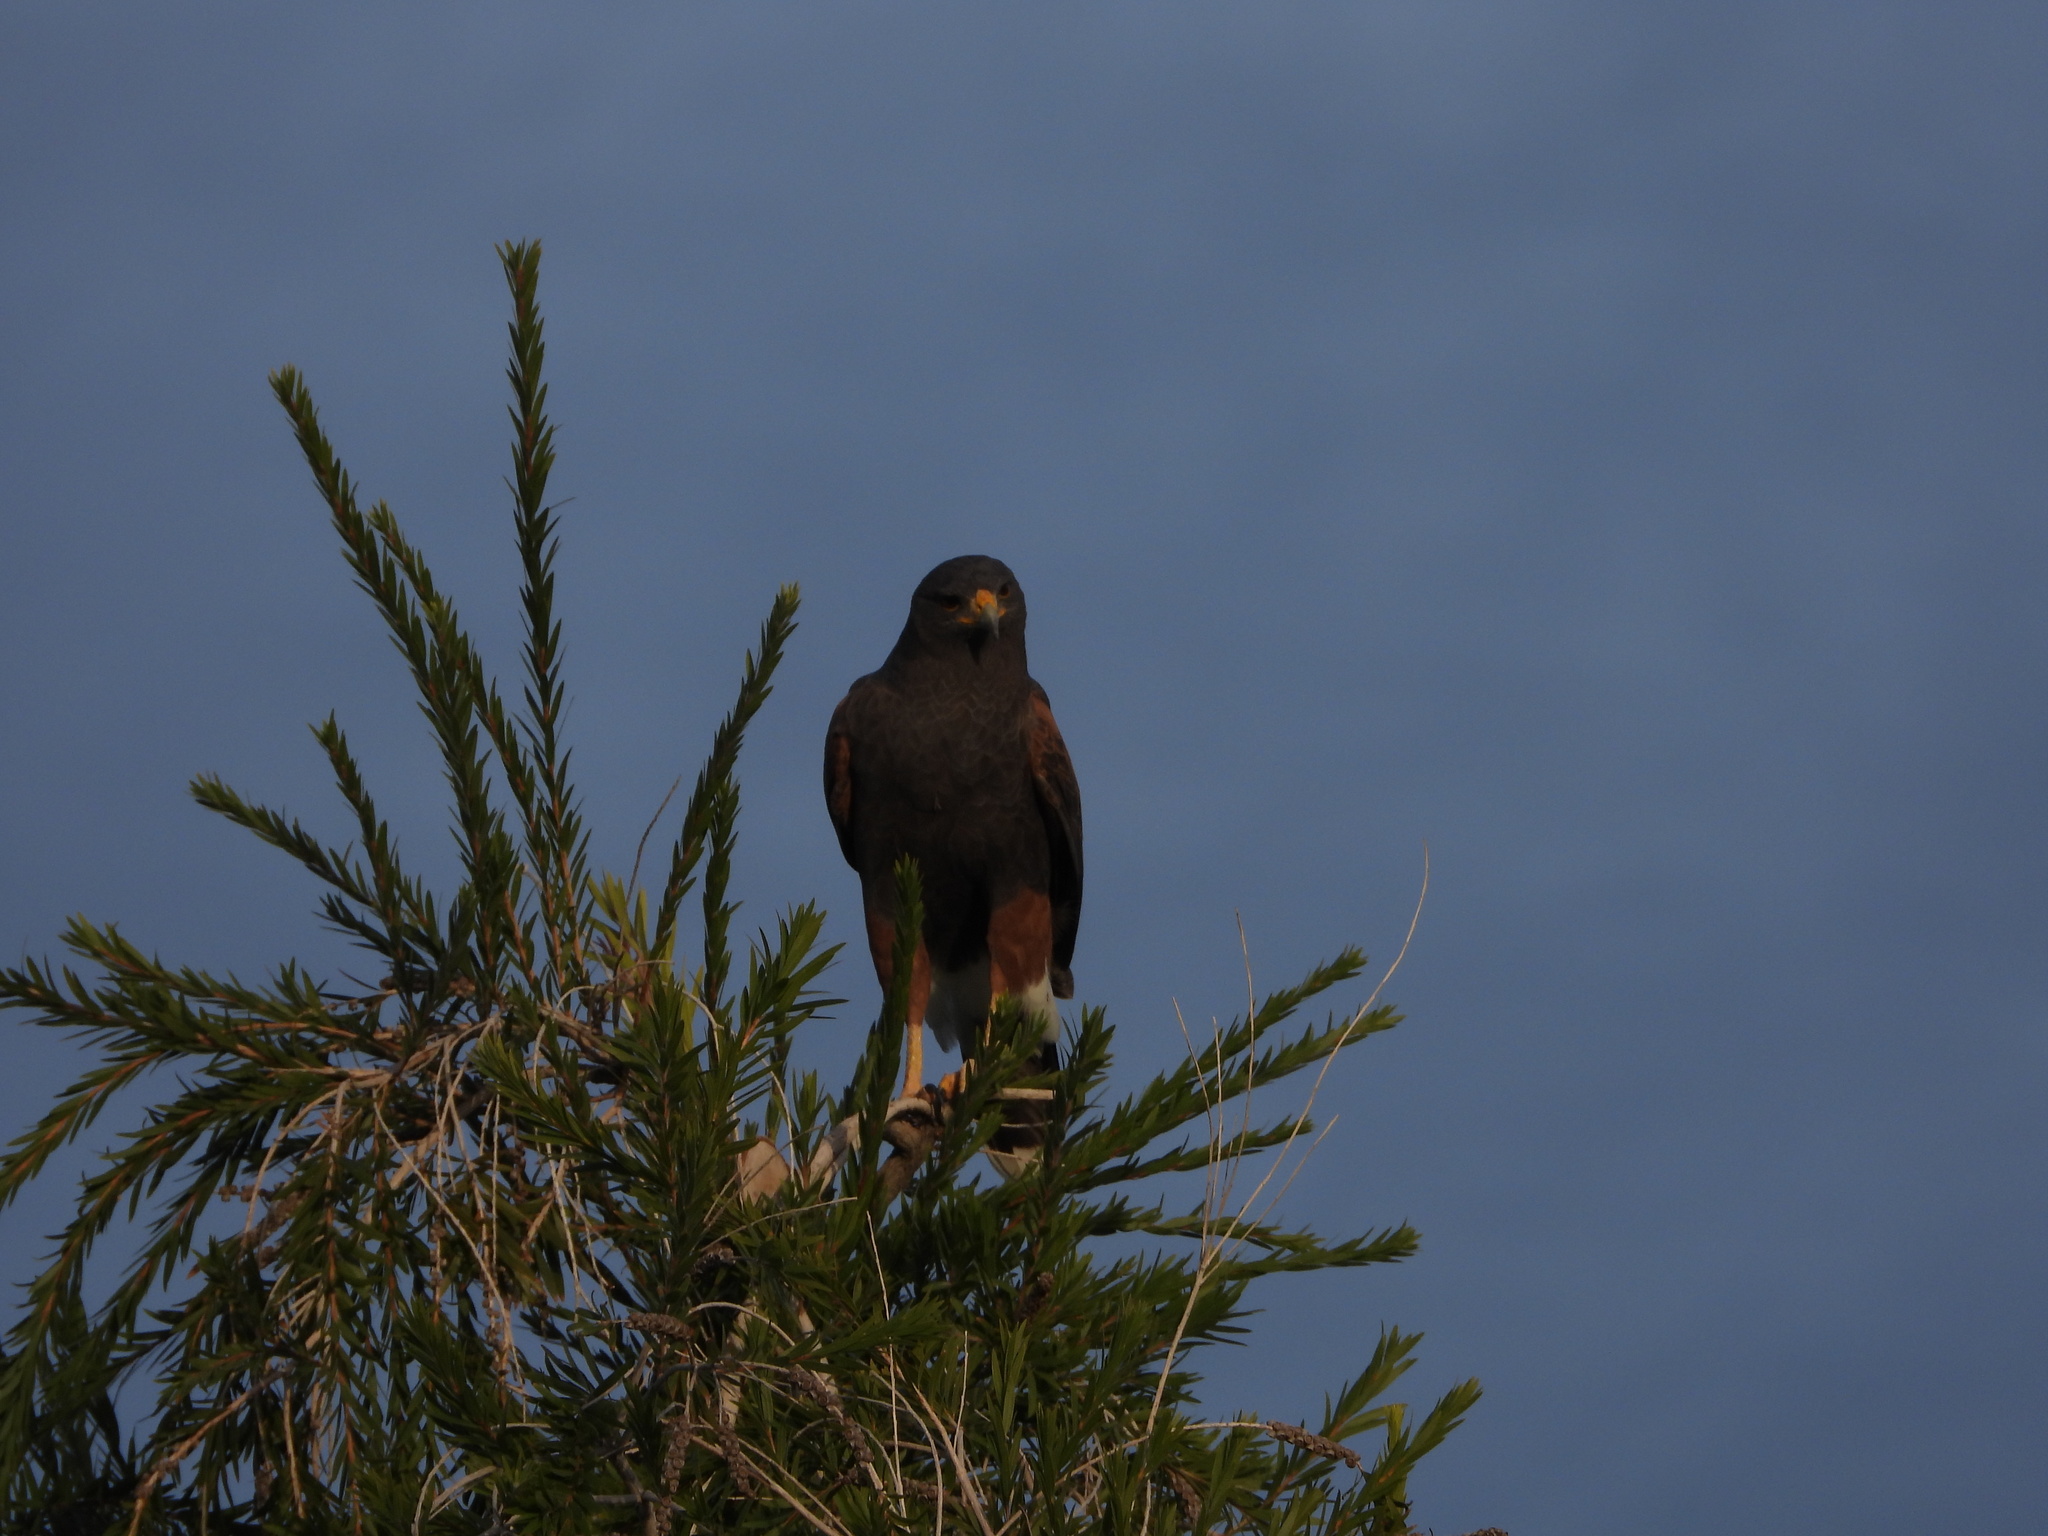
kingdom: Animalia
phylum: Chordata
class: Aves
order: Accipitriformes
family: Accipitridae
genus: Parabuteo
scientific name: Parabuteo unicinctus
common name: Harris's hawk
